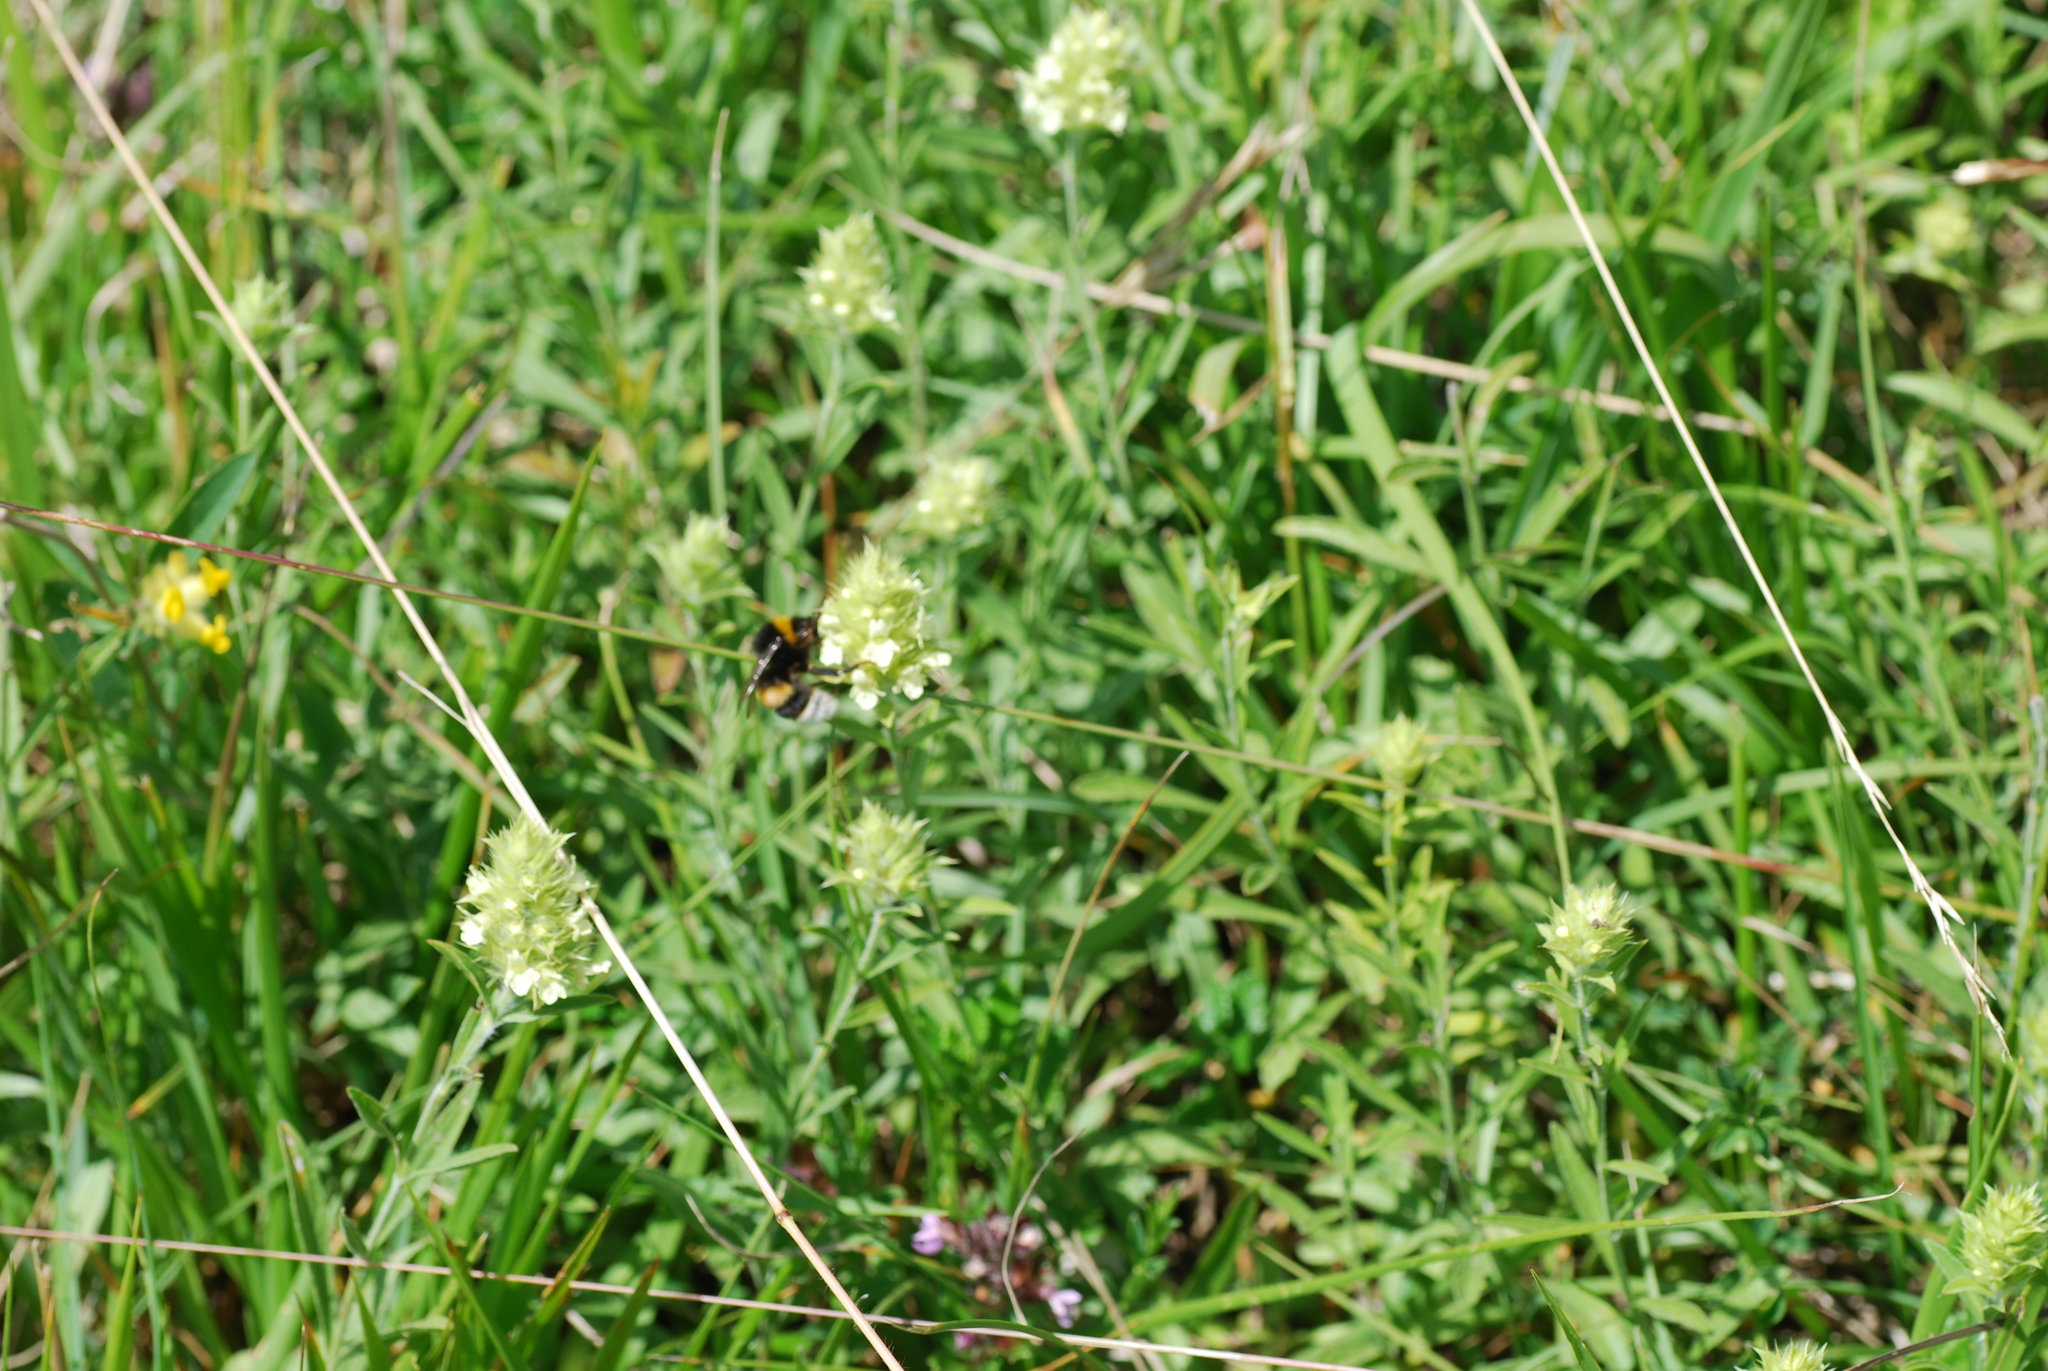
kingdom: Plantae
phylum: Tracheophyta
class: Magnoliopsida
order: Lamiales
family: Lamiaceae
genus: Sideritis
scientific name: Sideritis hyssopifolia
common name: Mountain tea
